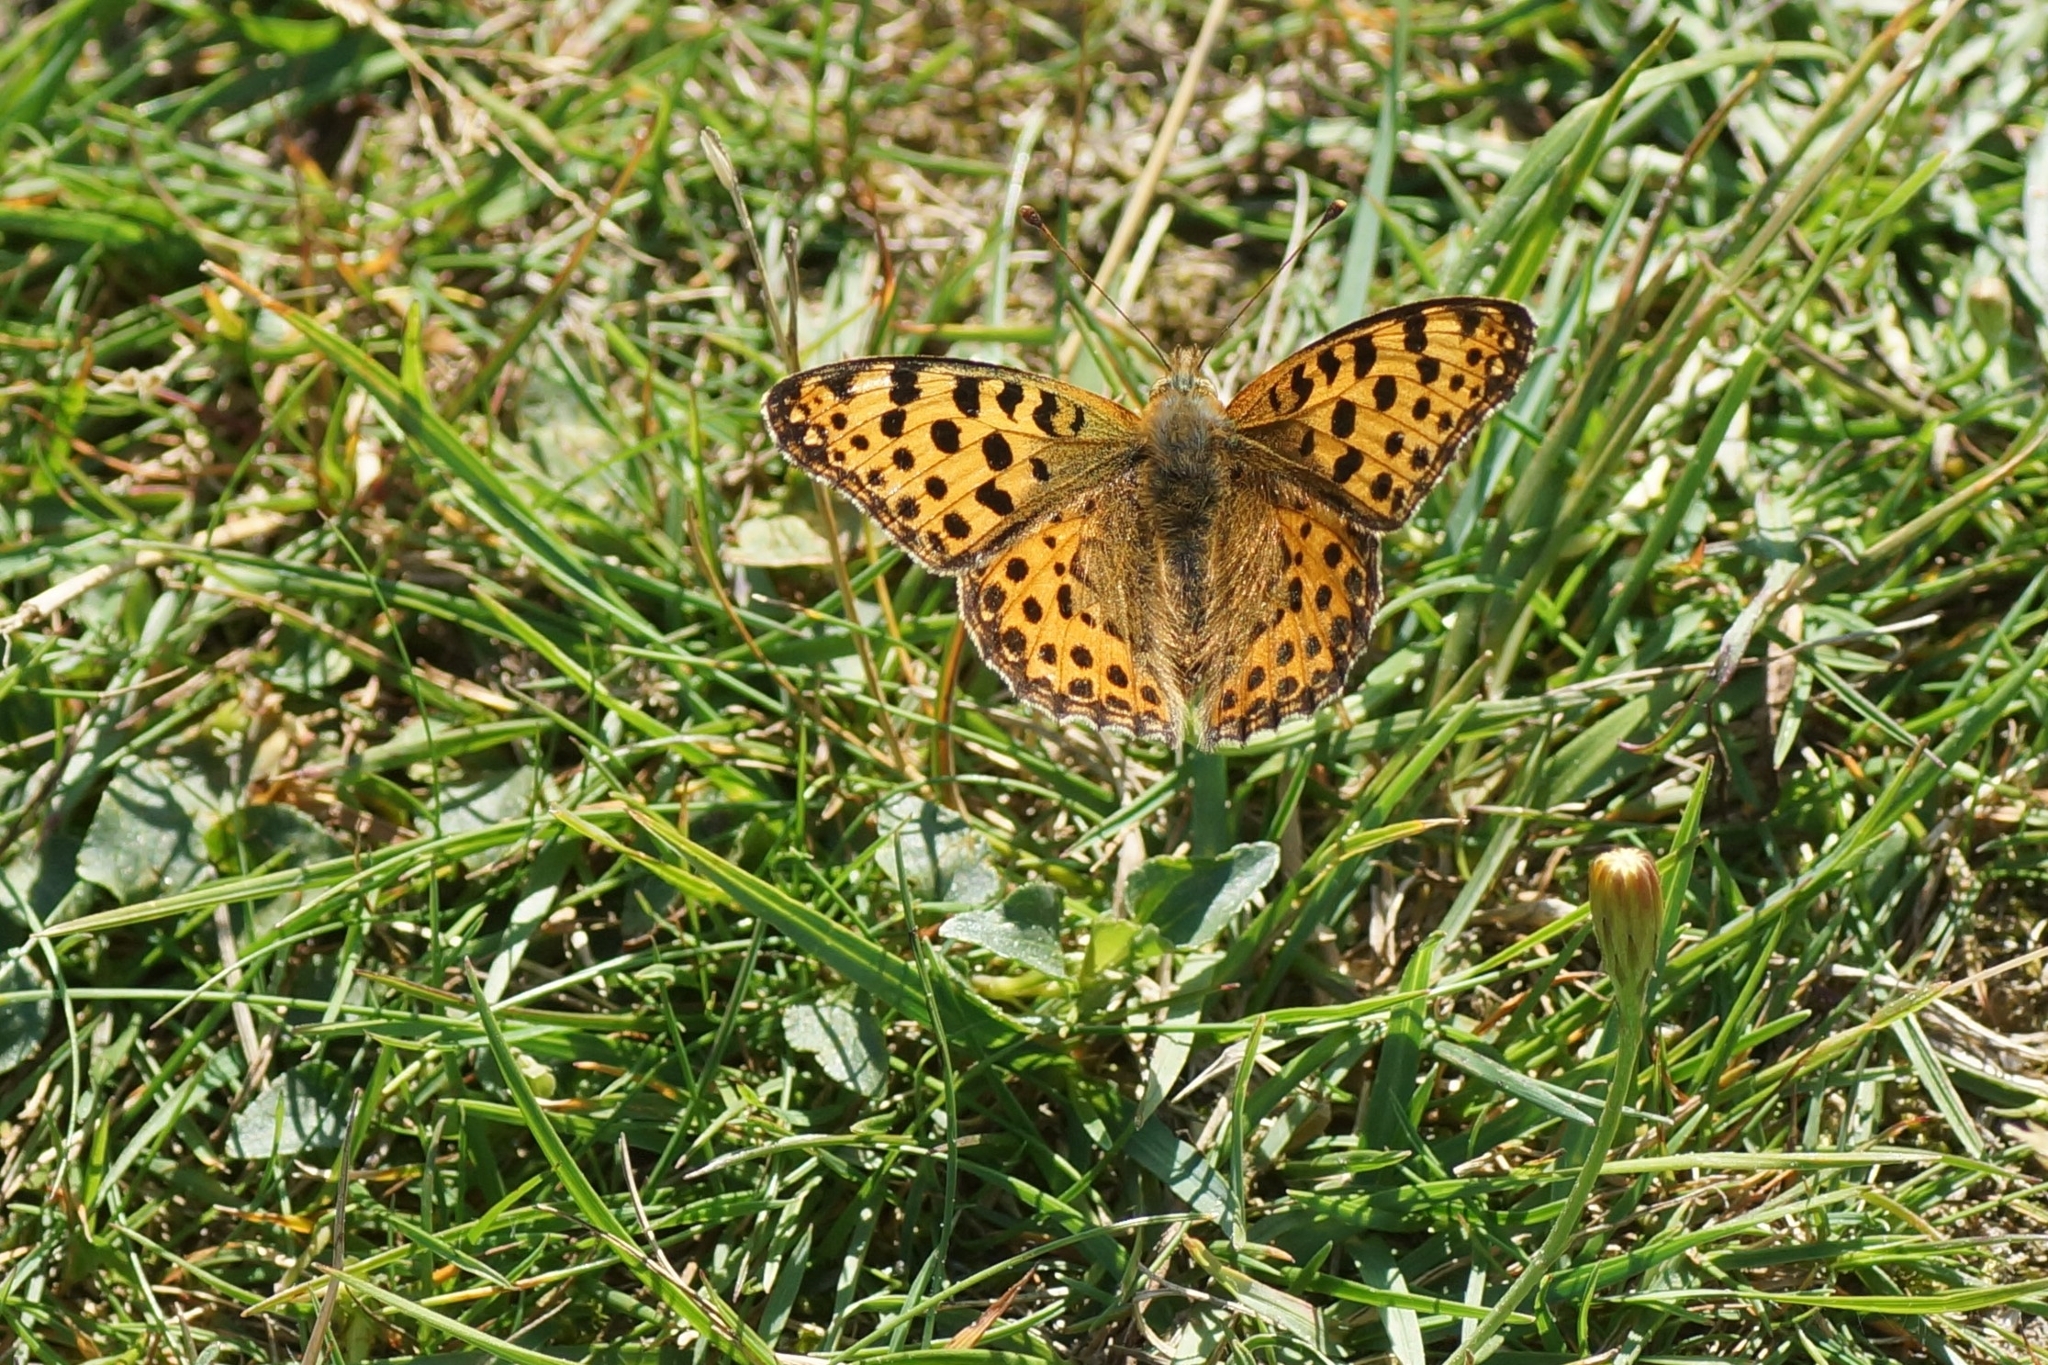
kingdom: Animalia
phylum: Arthropoda
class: Insecta
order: Lepidoptera
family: Nymphalidae
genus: Issoria
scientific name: Issoria lathonia
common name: Queen of spain fritillary
